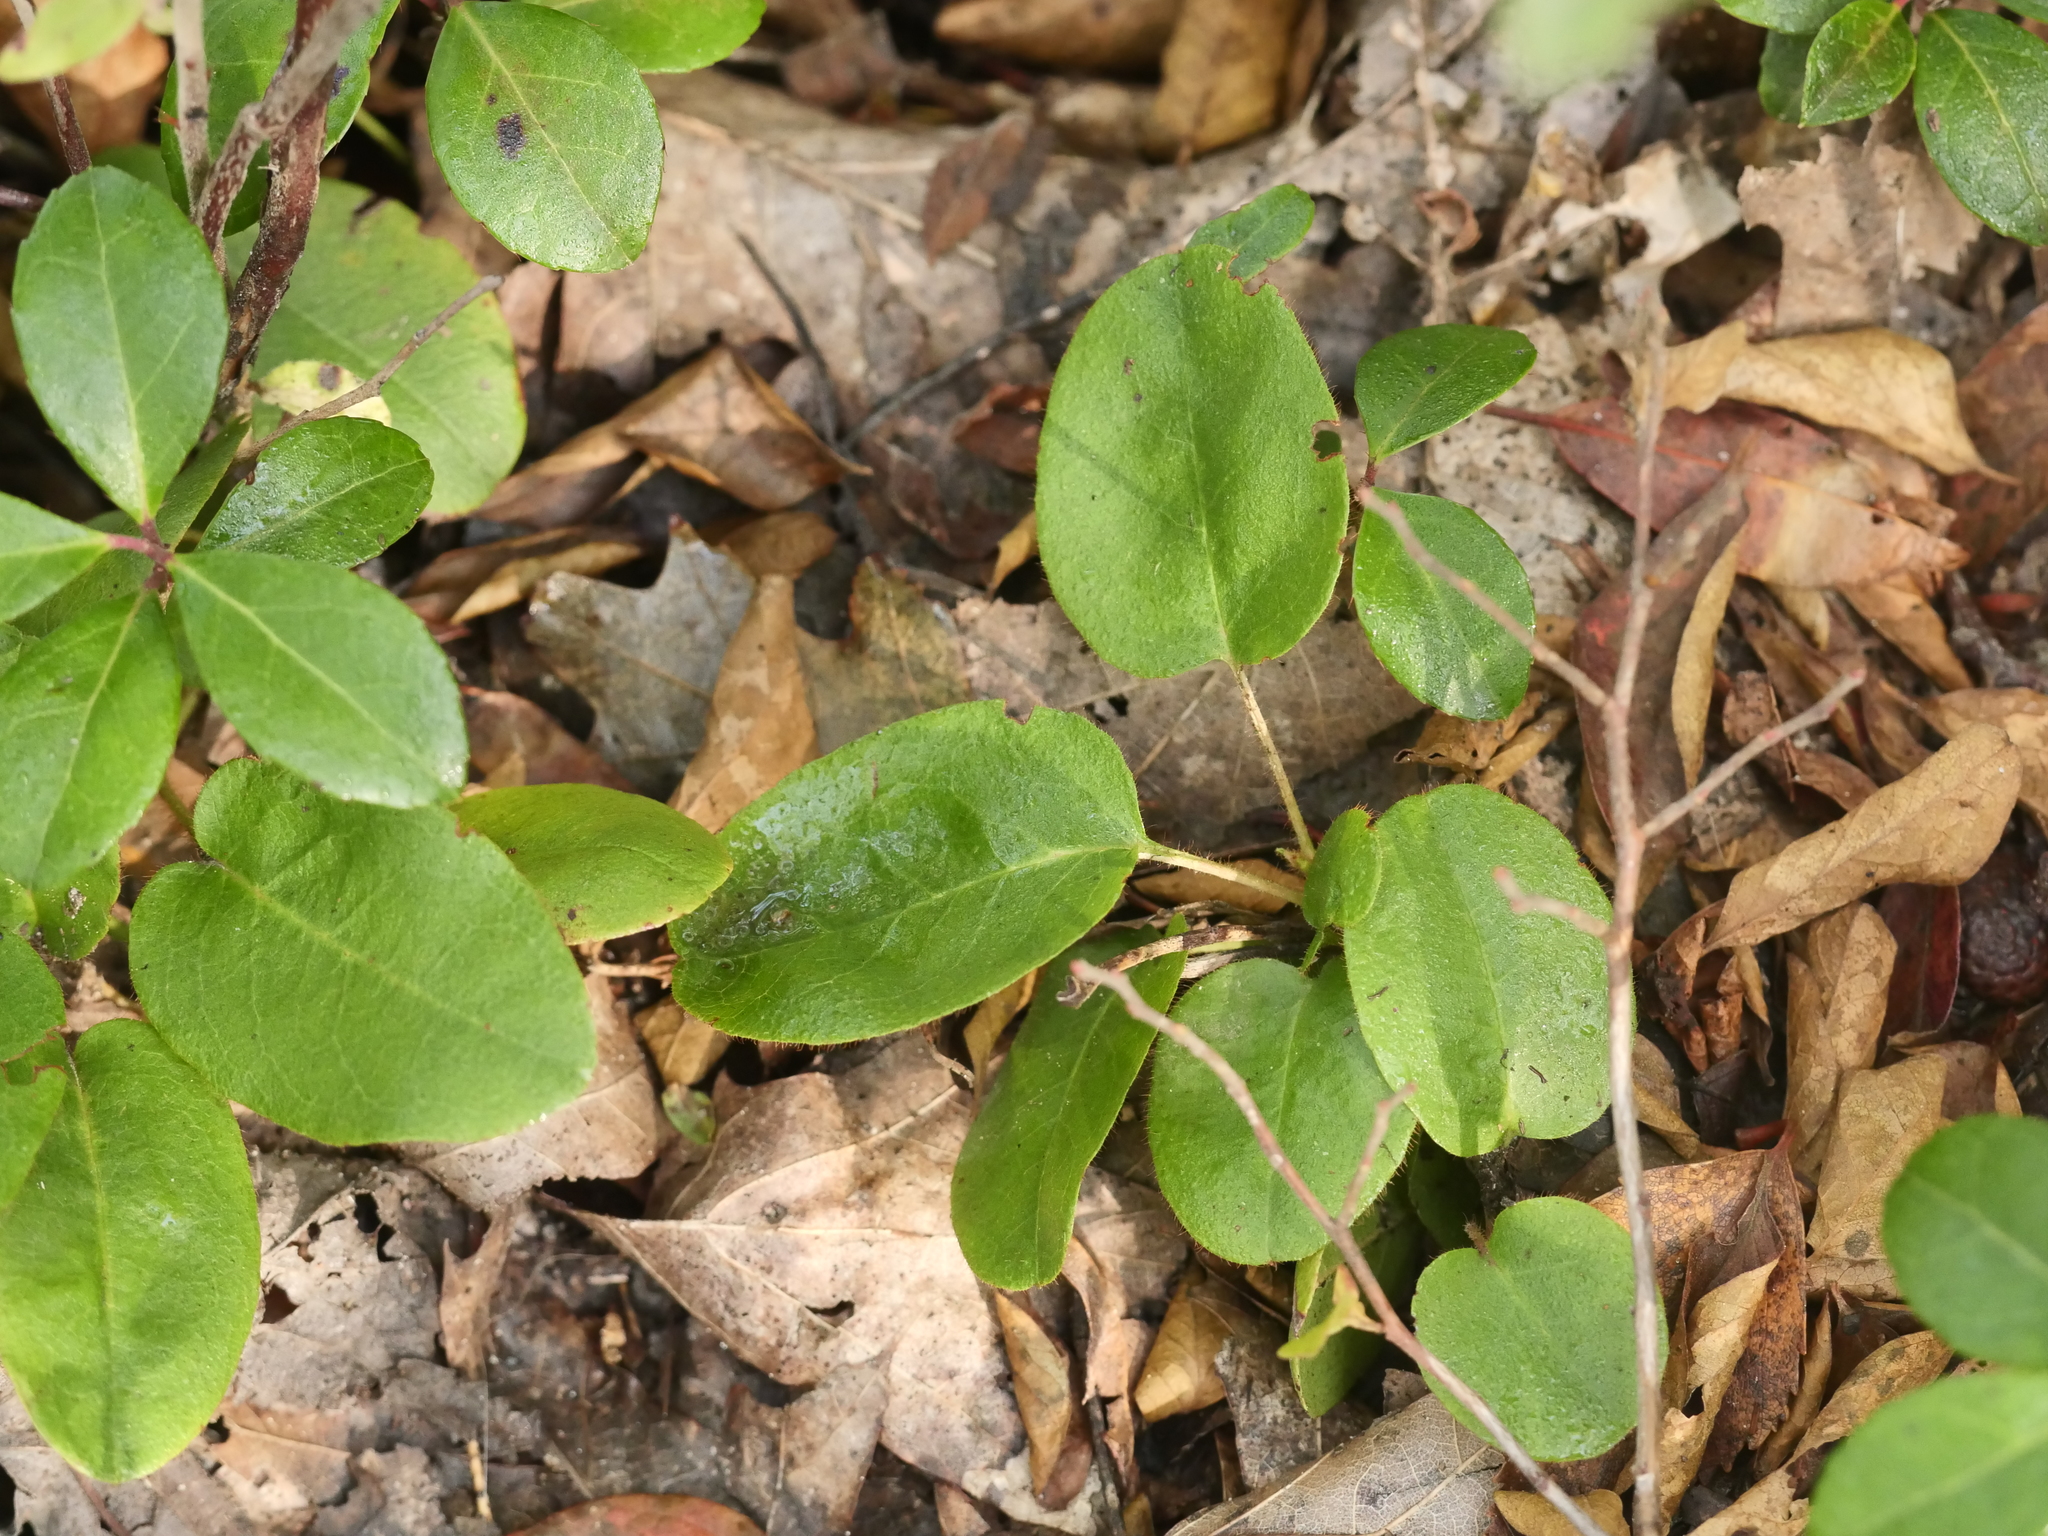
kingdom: Plantae
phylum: Tracheophyta
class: Magnoliopsida
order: Ericales
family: Ericaceae
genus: Epigaea
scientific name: Epigaea repens
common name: Gravelroot
